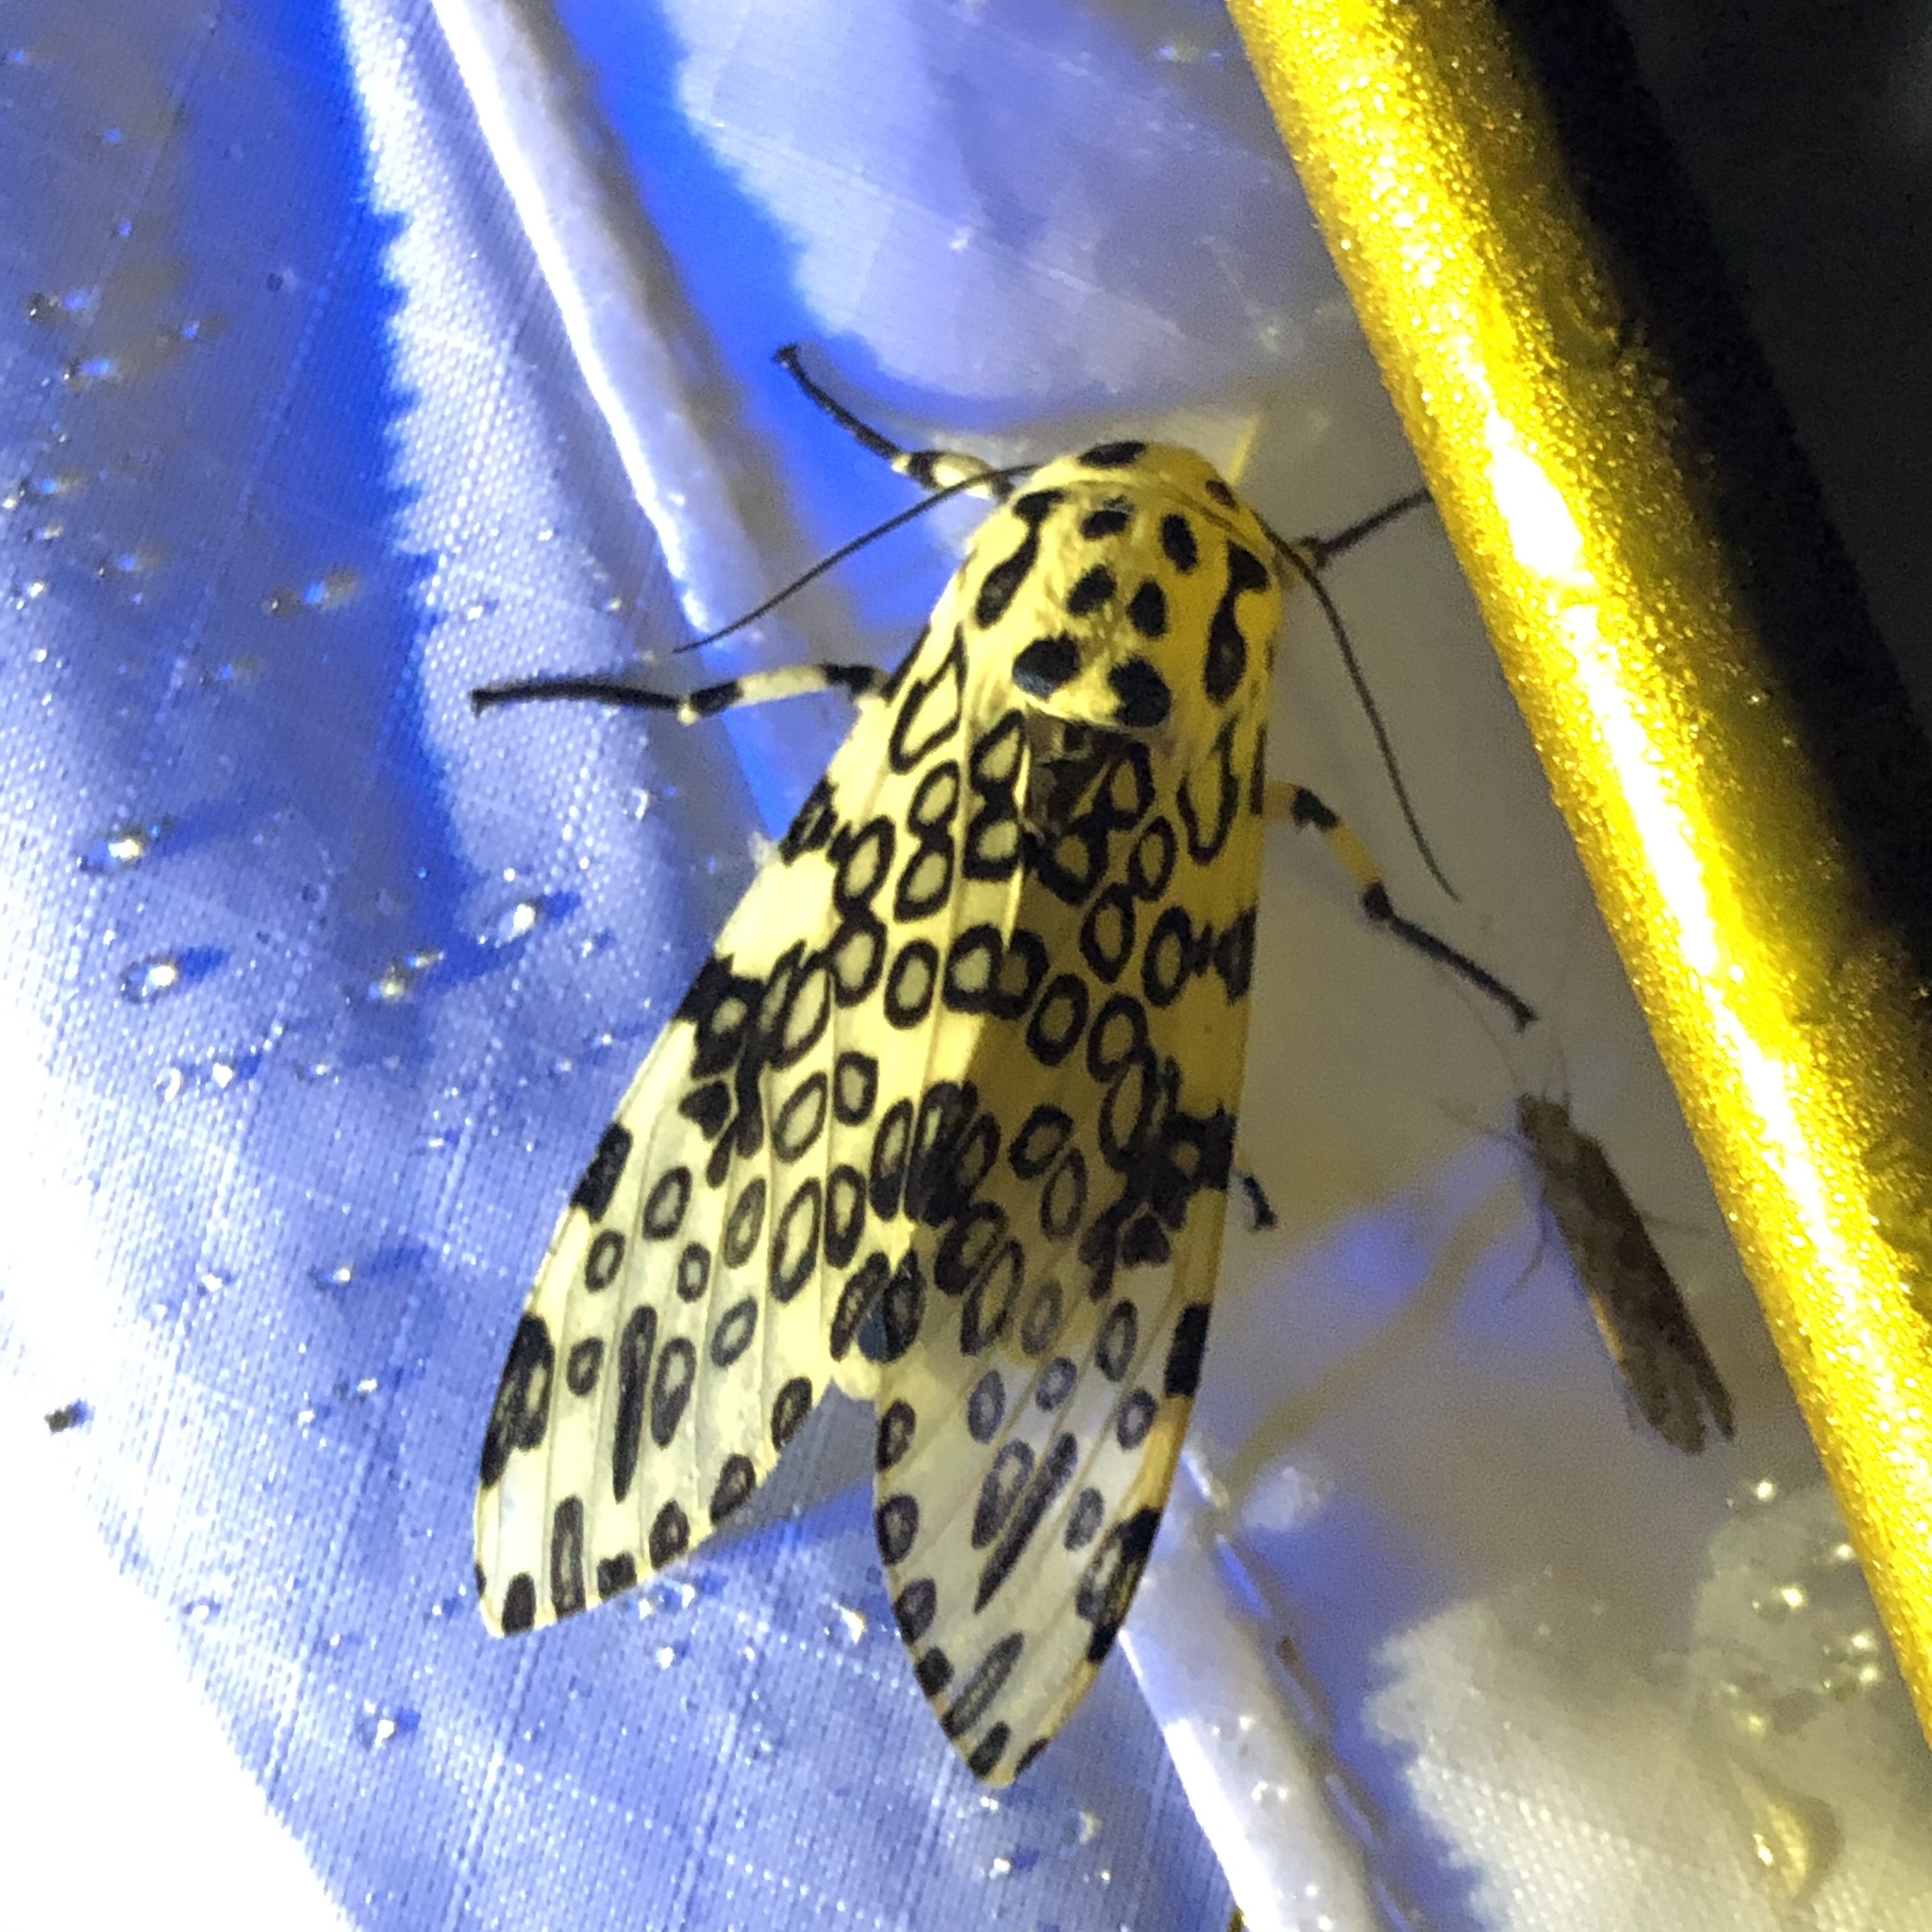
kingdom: Animalia
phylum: Arthropoda
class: Insecta
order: Lepidoptera
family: Erebidae
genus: Hypercompe
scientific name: Hypercompe scribonia
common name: Giant leopard moth
